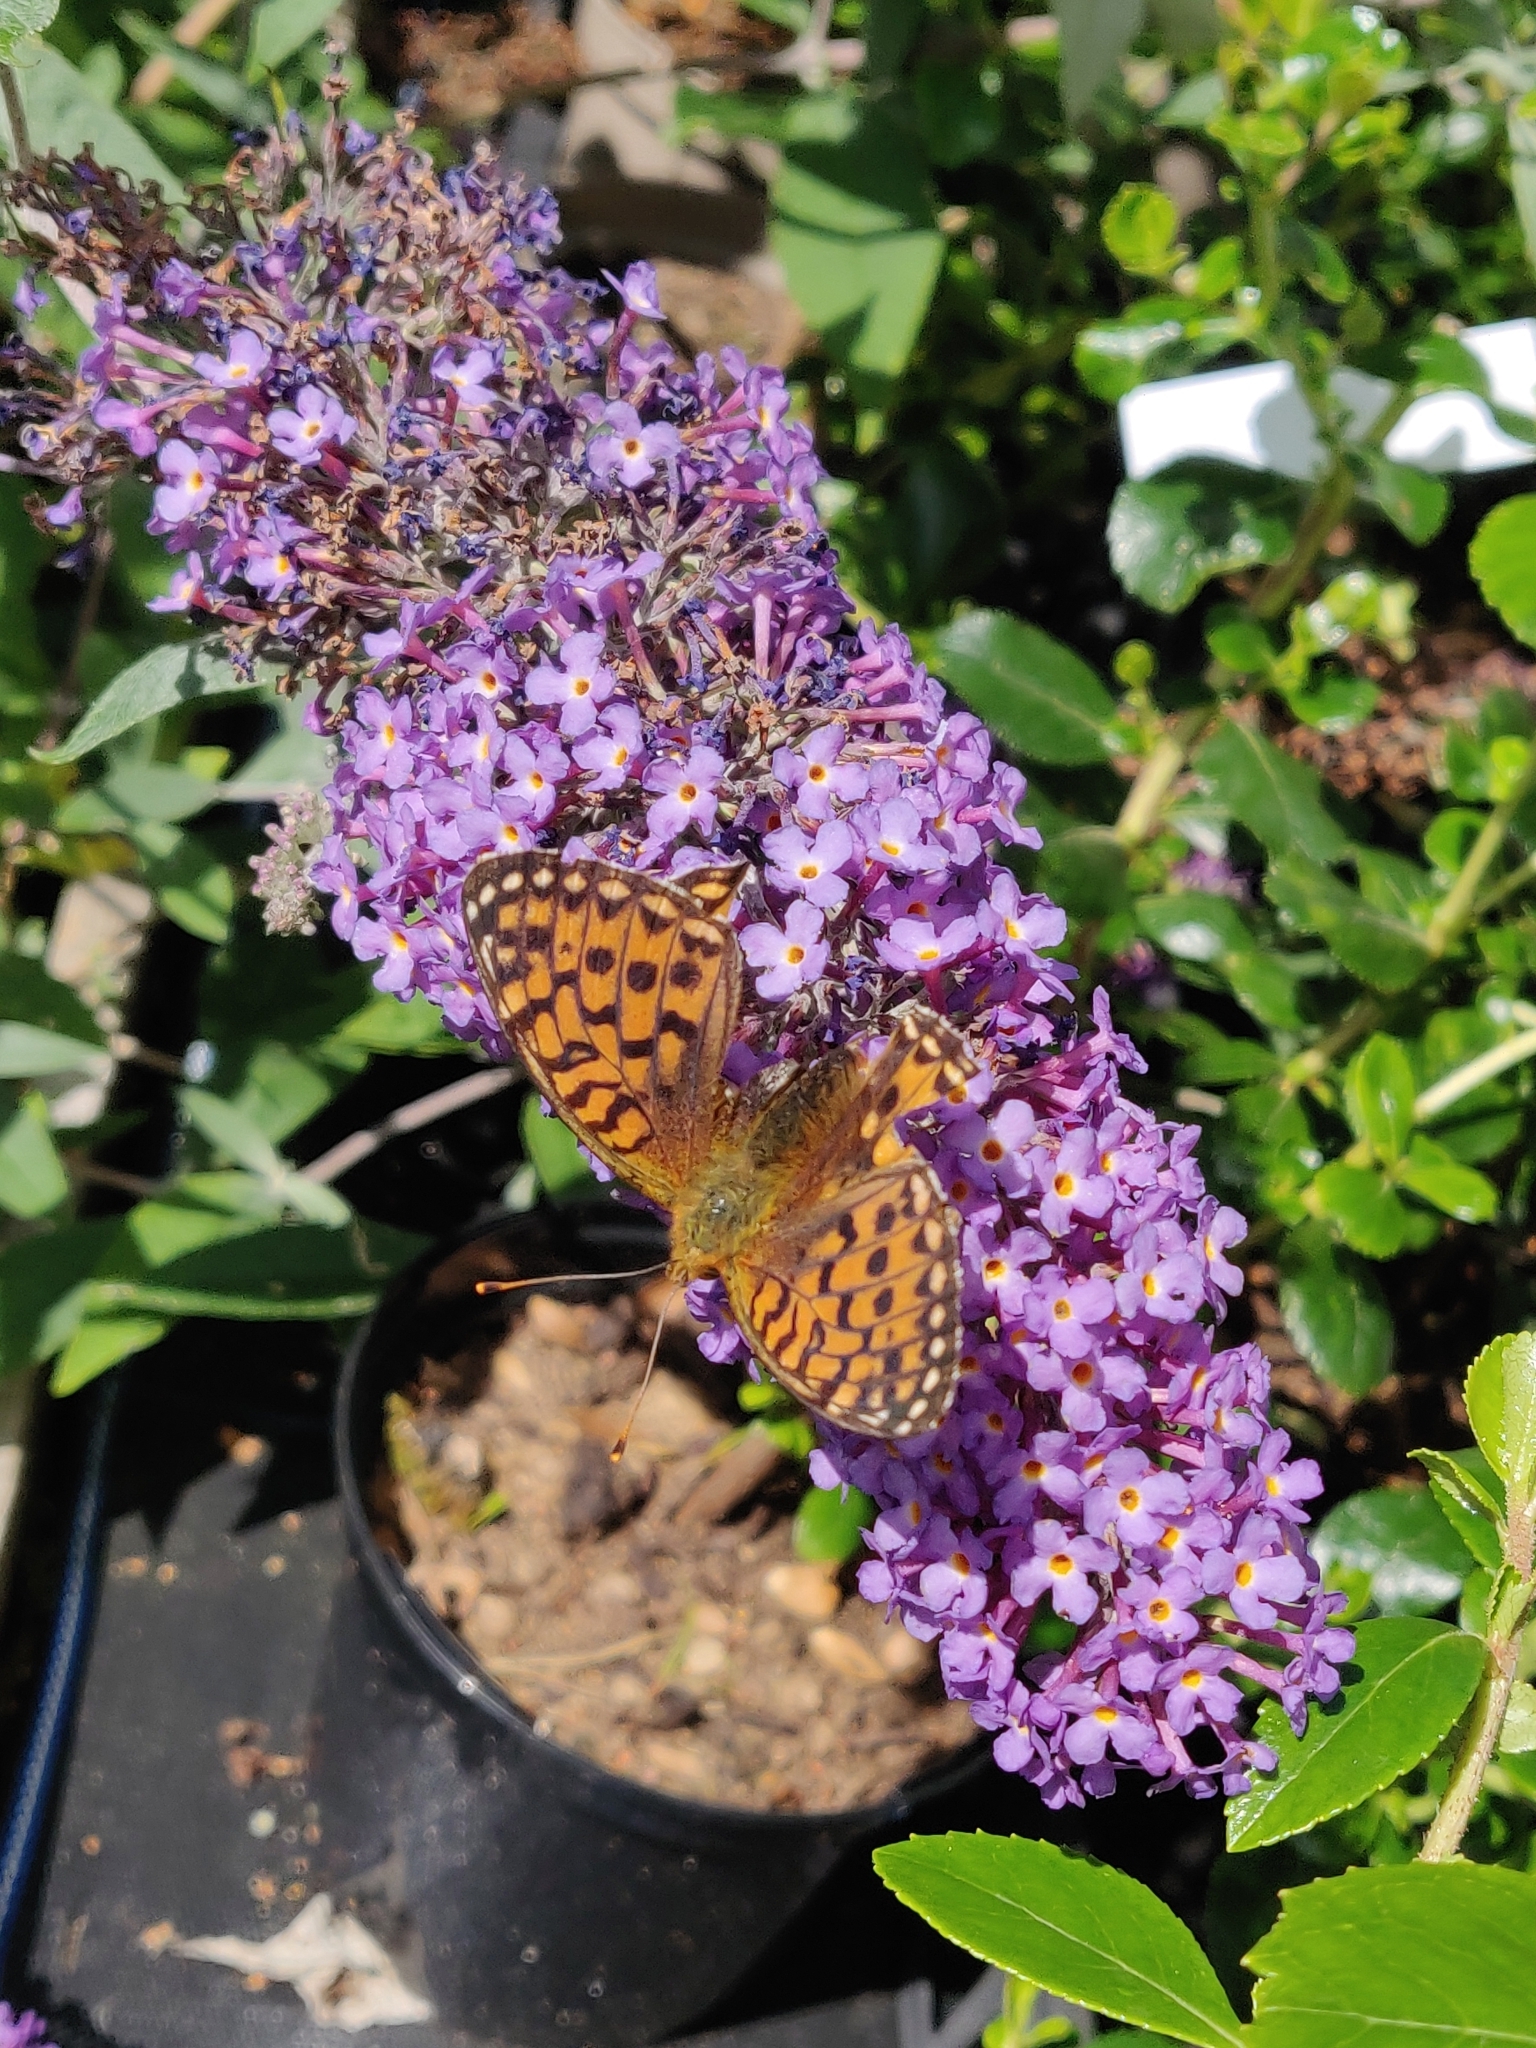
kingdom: Animalia
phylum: Arthropoda
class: Insecta
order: Lepidoptera
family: Nymphalidae
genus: Speyeria
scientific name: Speyeria aglaja
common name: Dark green fritillary
